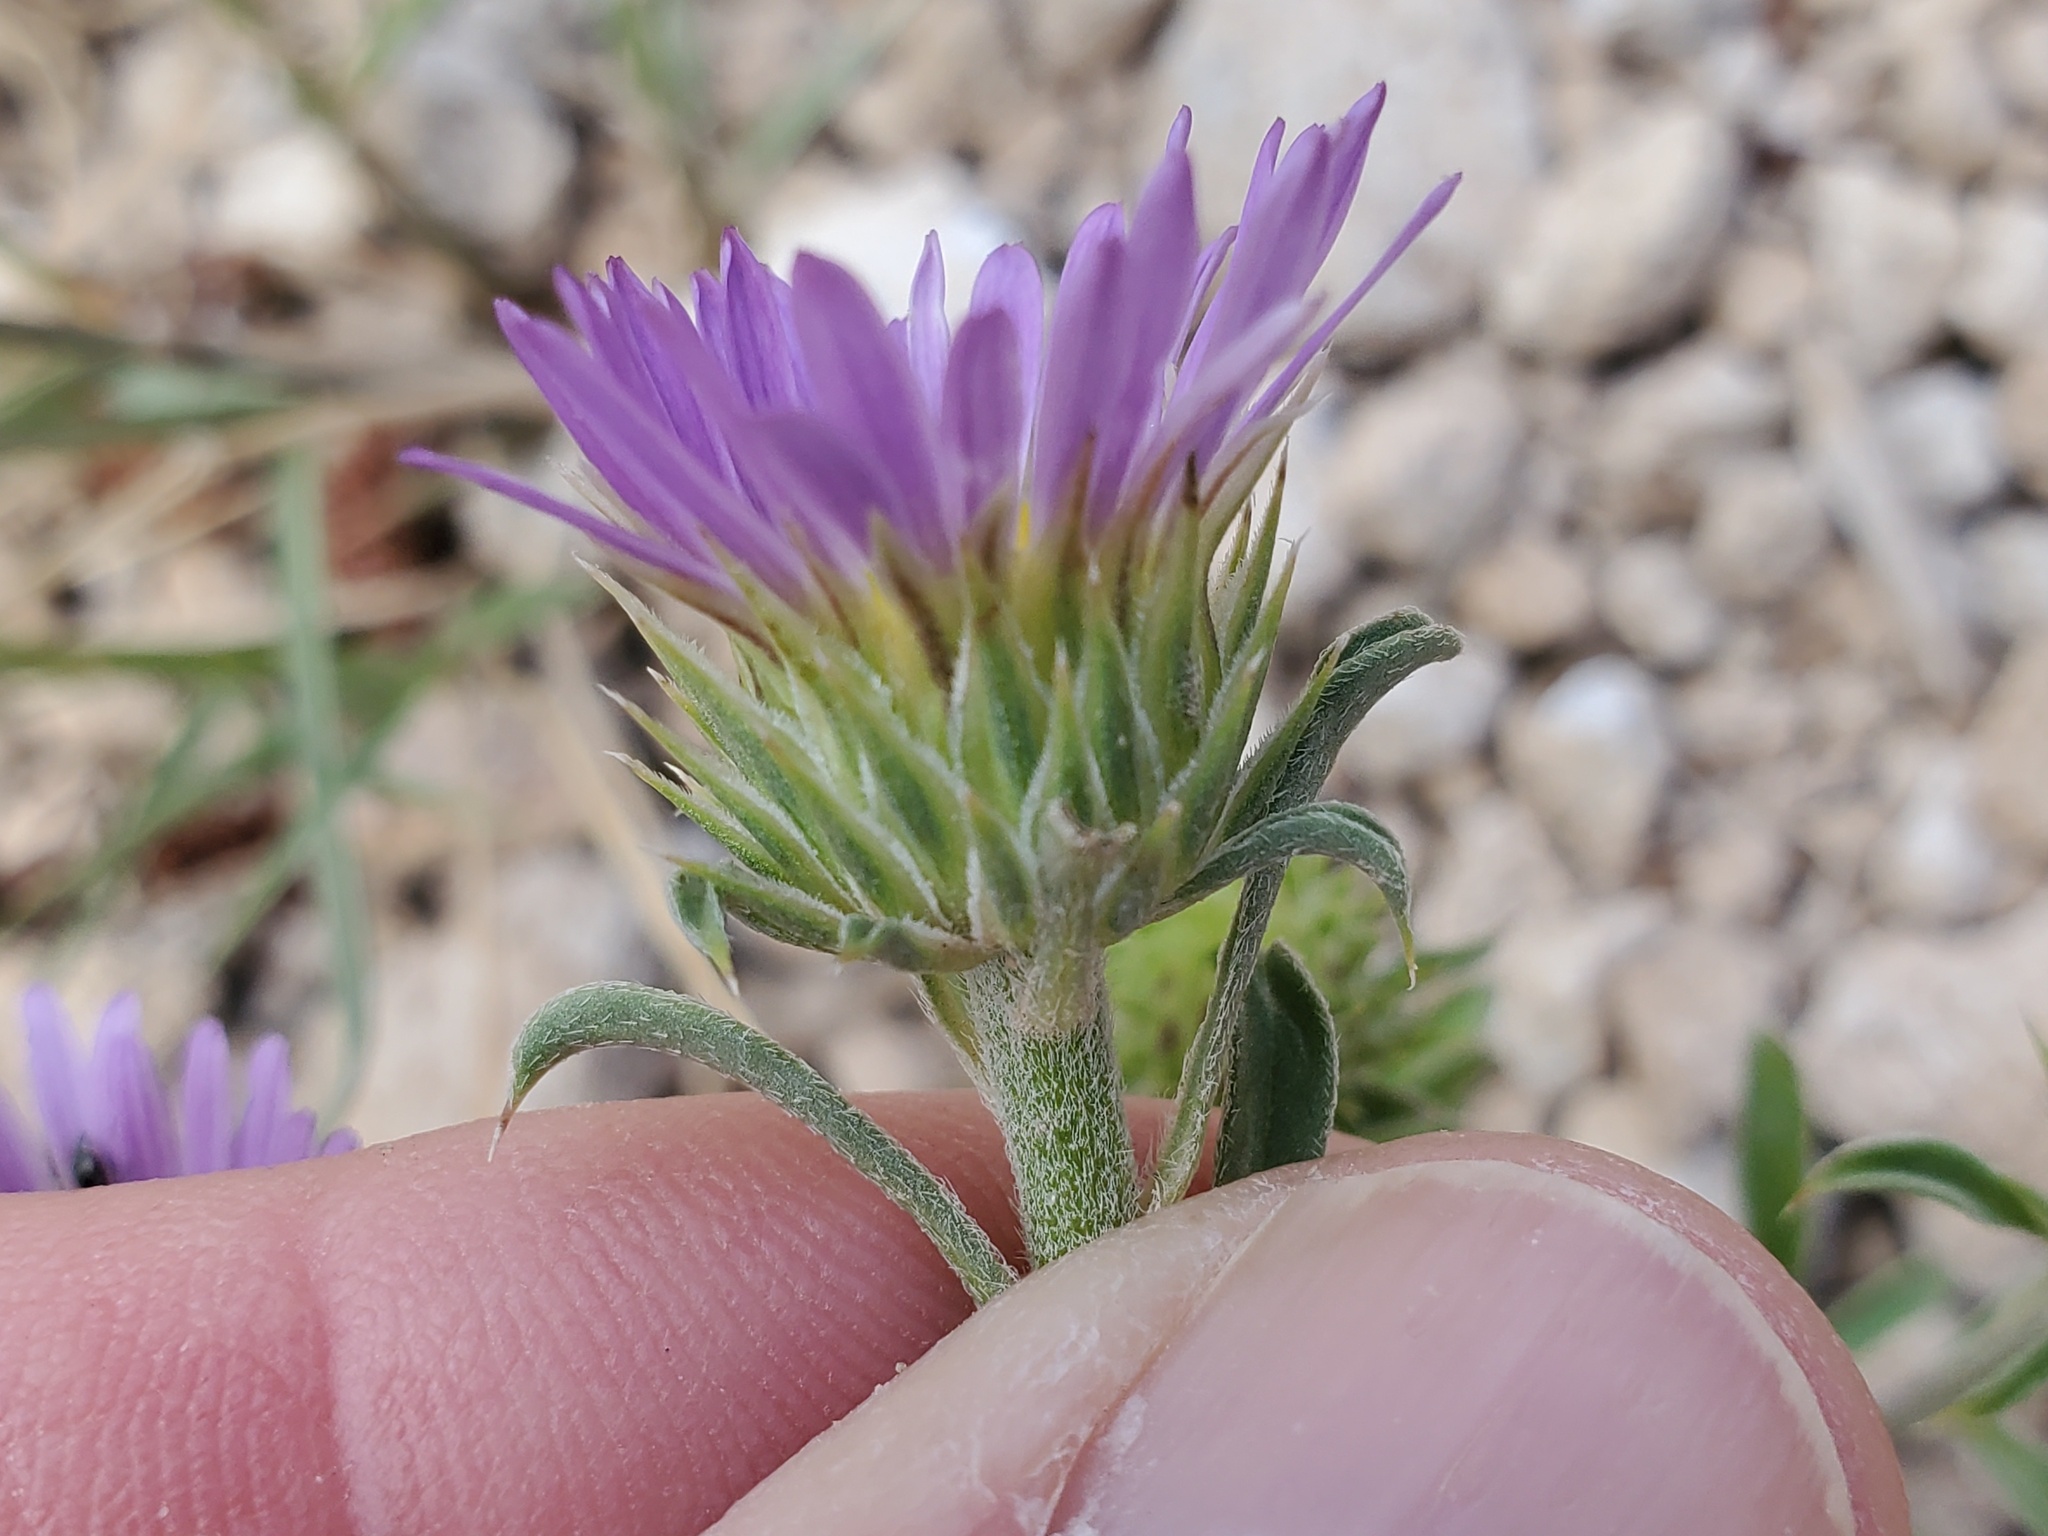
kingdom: Plantae
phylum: Tracheophyta
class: Magnoliopsida
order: Asterales
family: Asteraceae
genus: Townsendia
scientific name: Townsendia eximia
